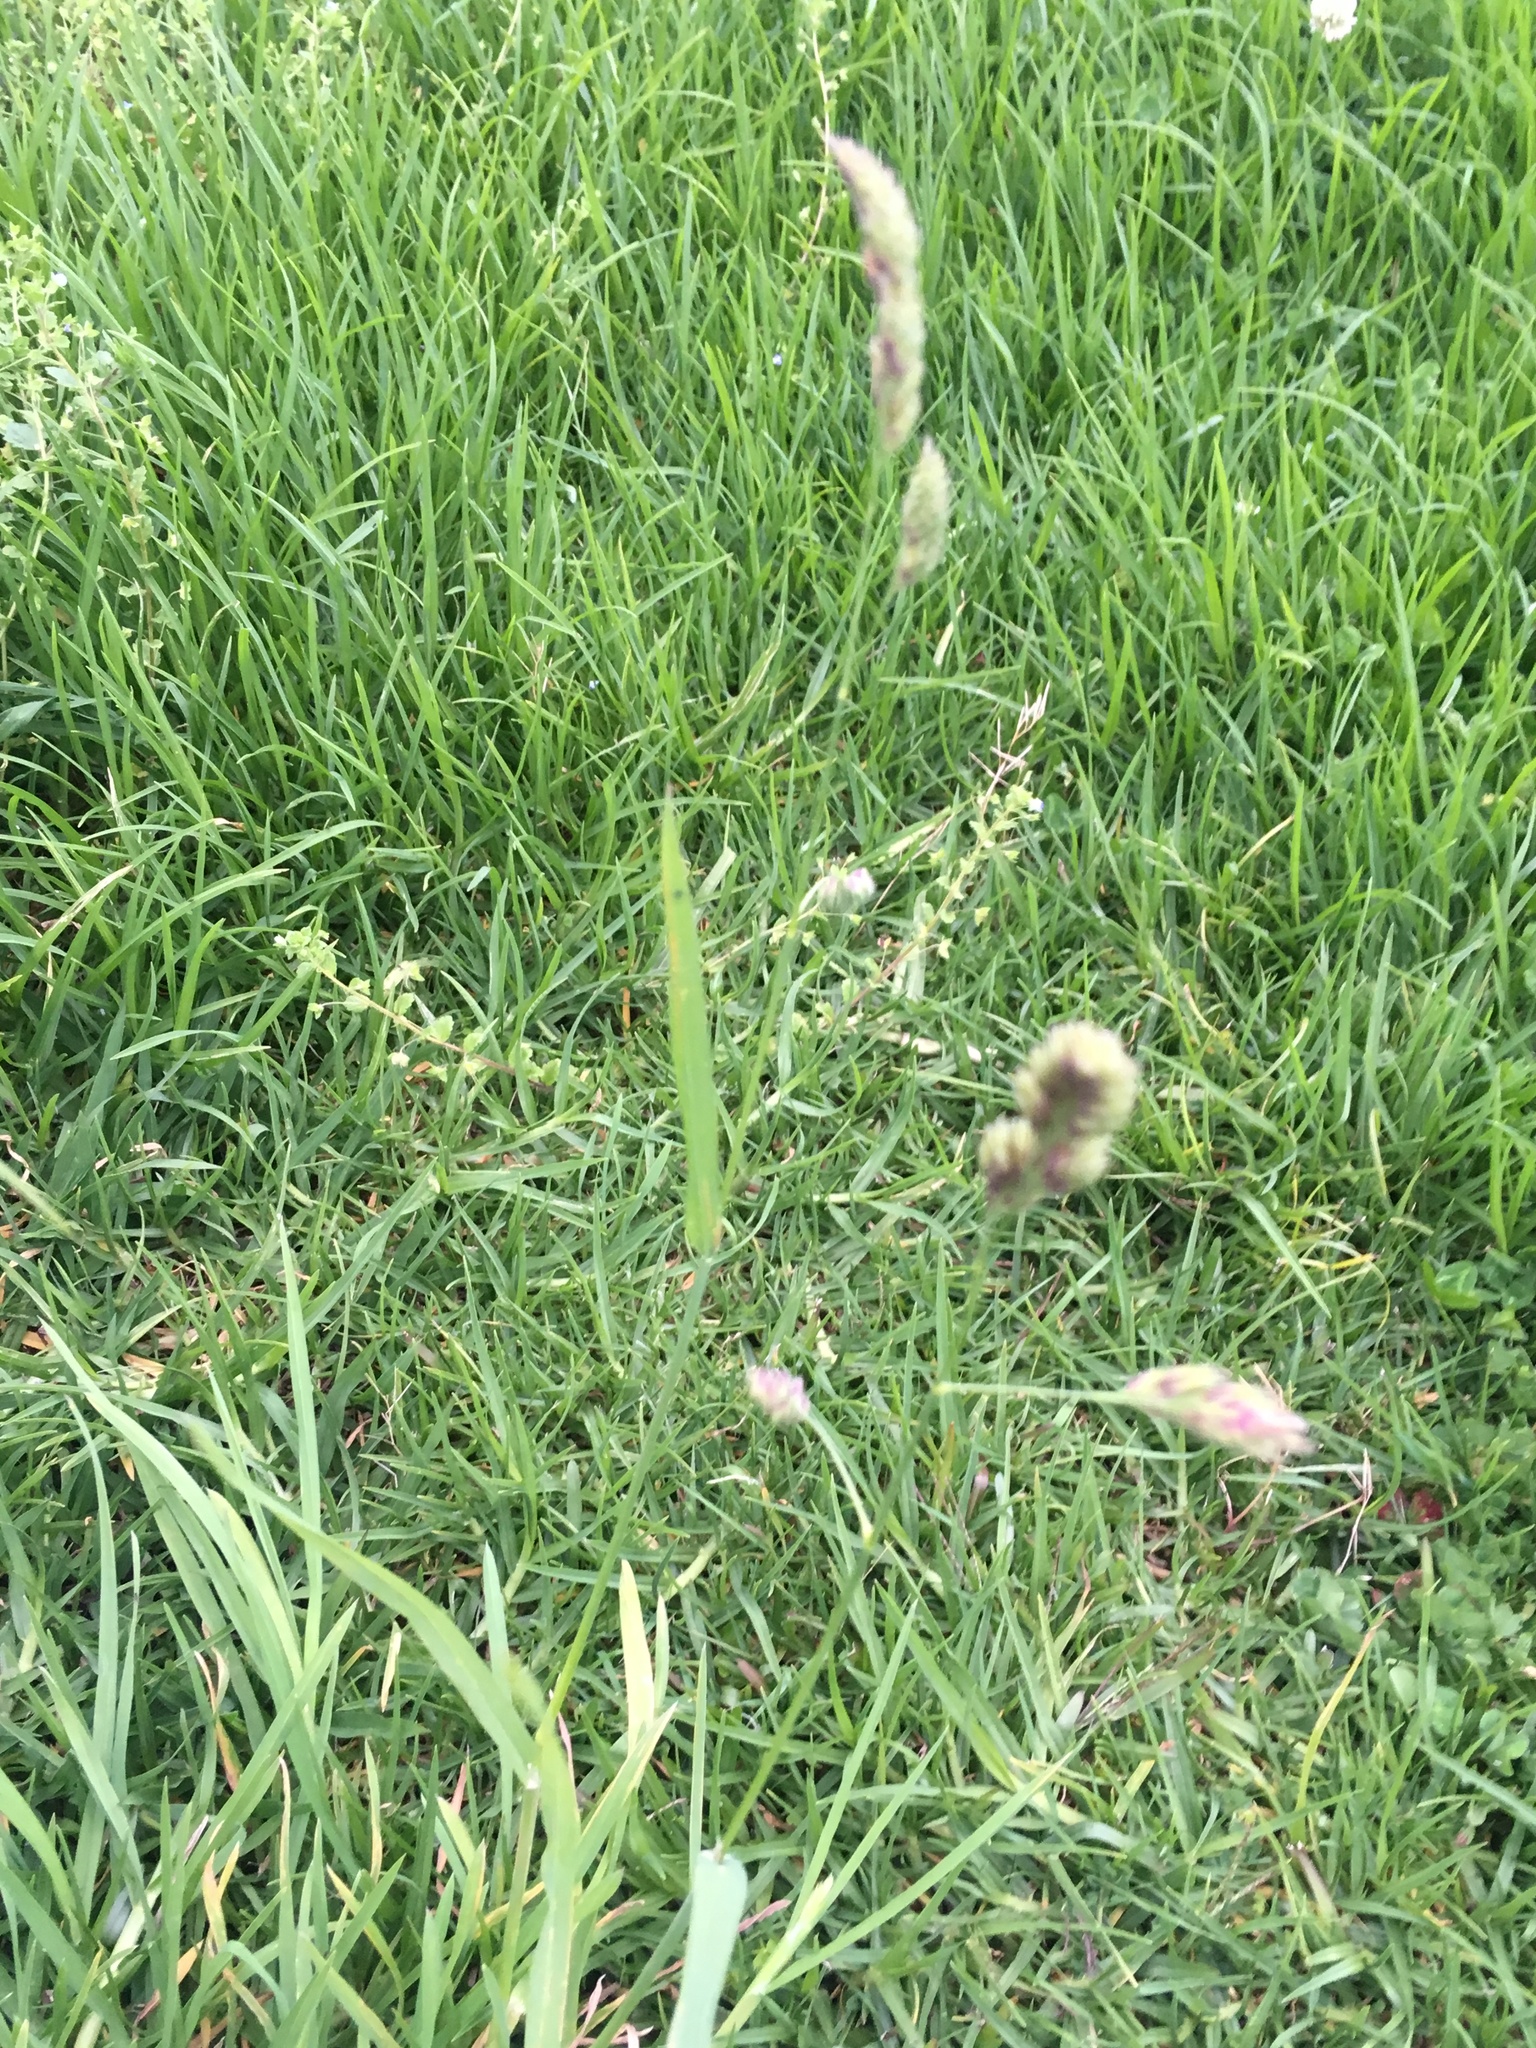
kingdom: Plantae
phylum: Tracheophyta
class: Liliopsida
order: Poales
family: Poaceae
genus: Dactylis
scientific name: Dactylis glomerata
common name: Orchardgrass
